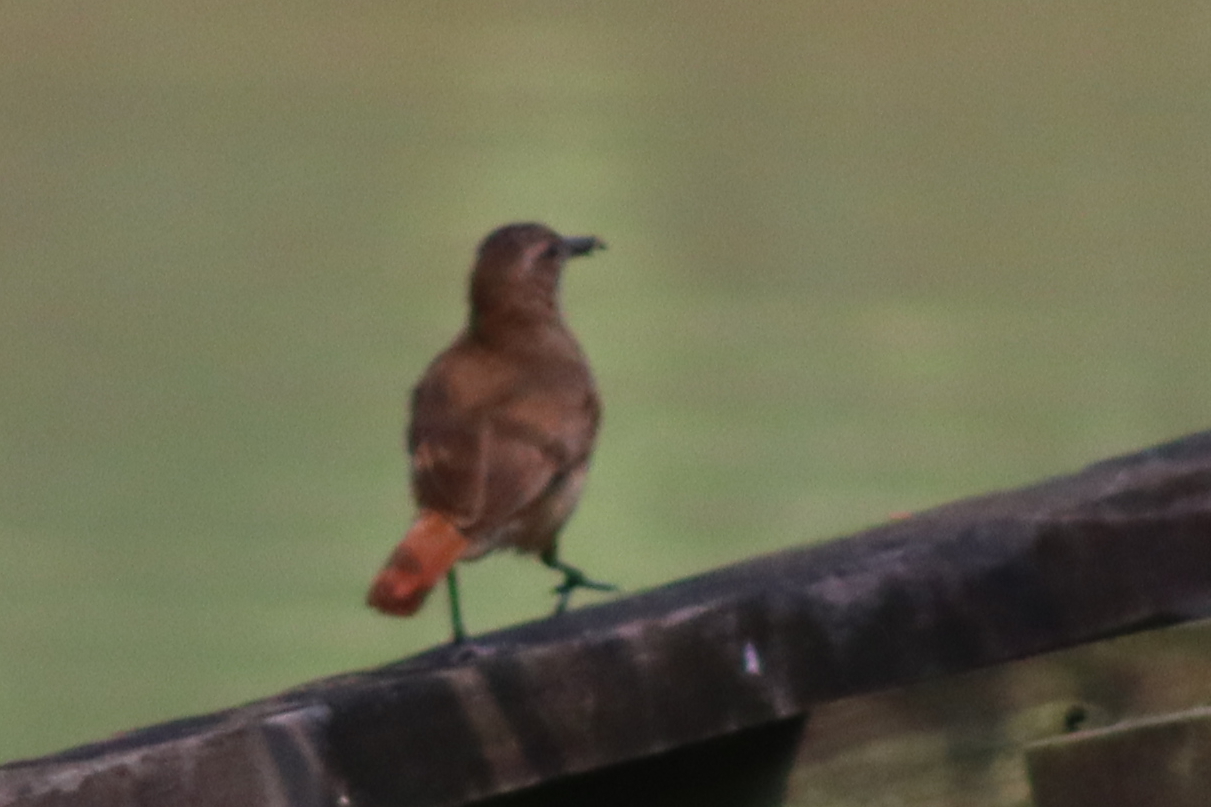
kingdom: Animalia
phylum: Chordata
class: Aves
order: Passeriformes
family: Furnariidae
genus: Furnarius
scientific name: Furnarius rufus
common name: Rufous hornero
